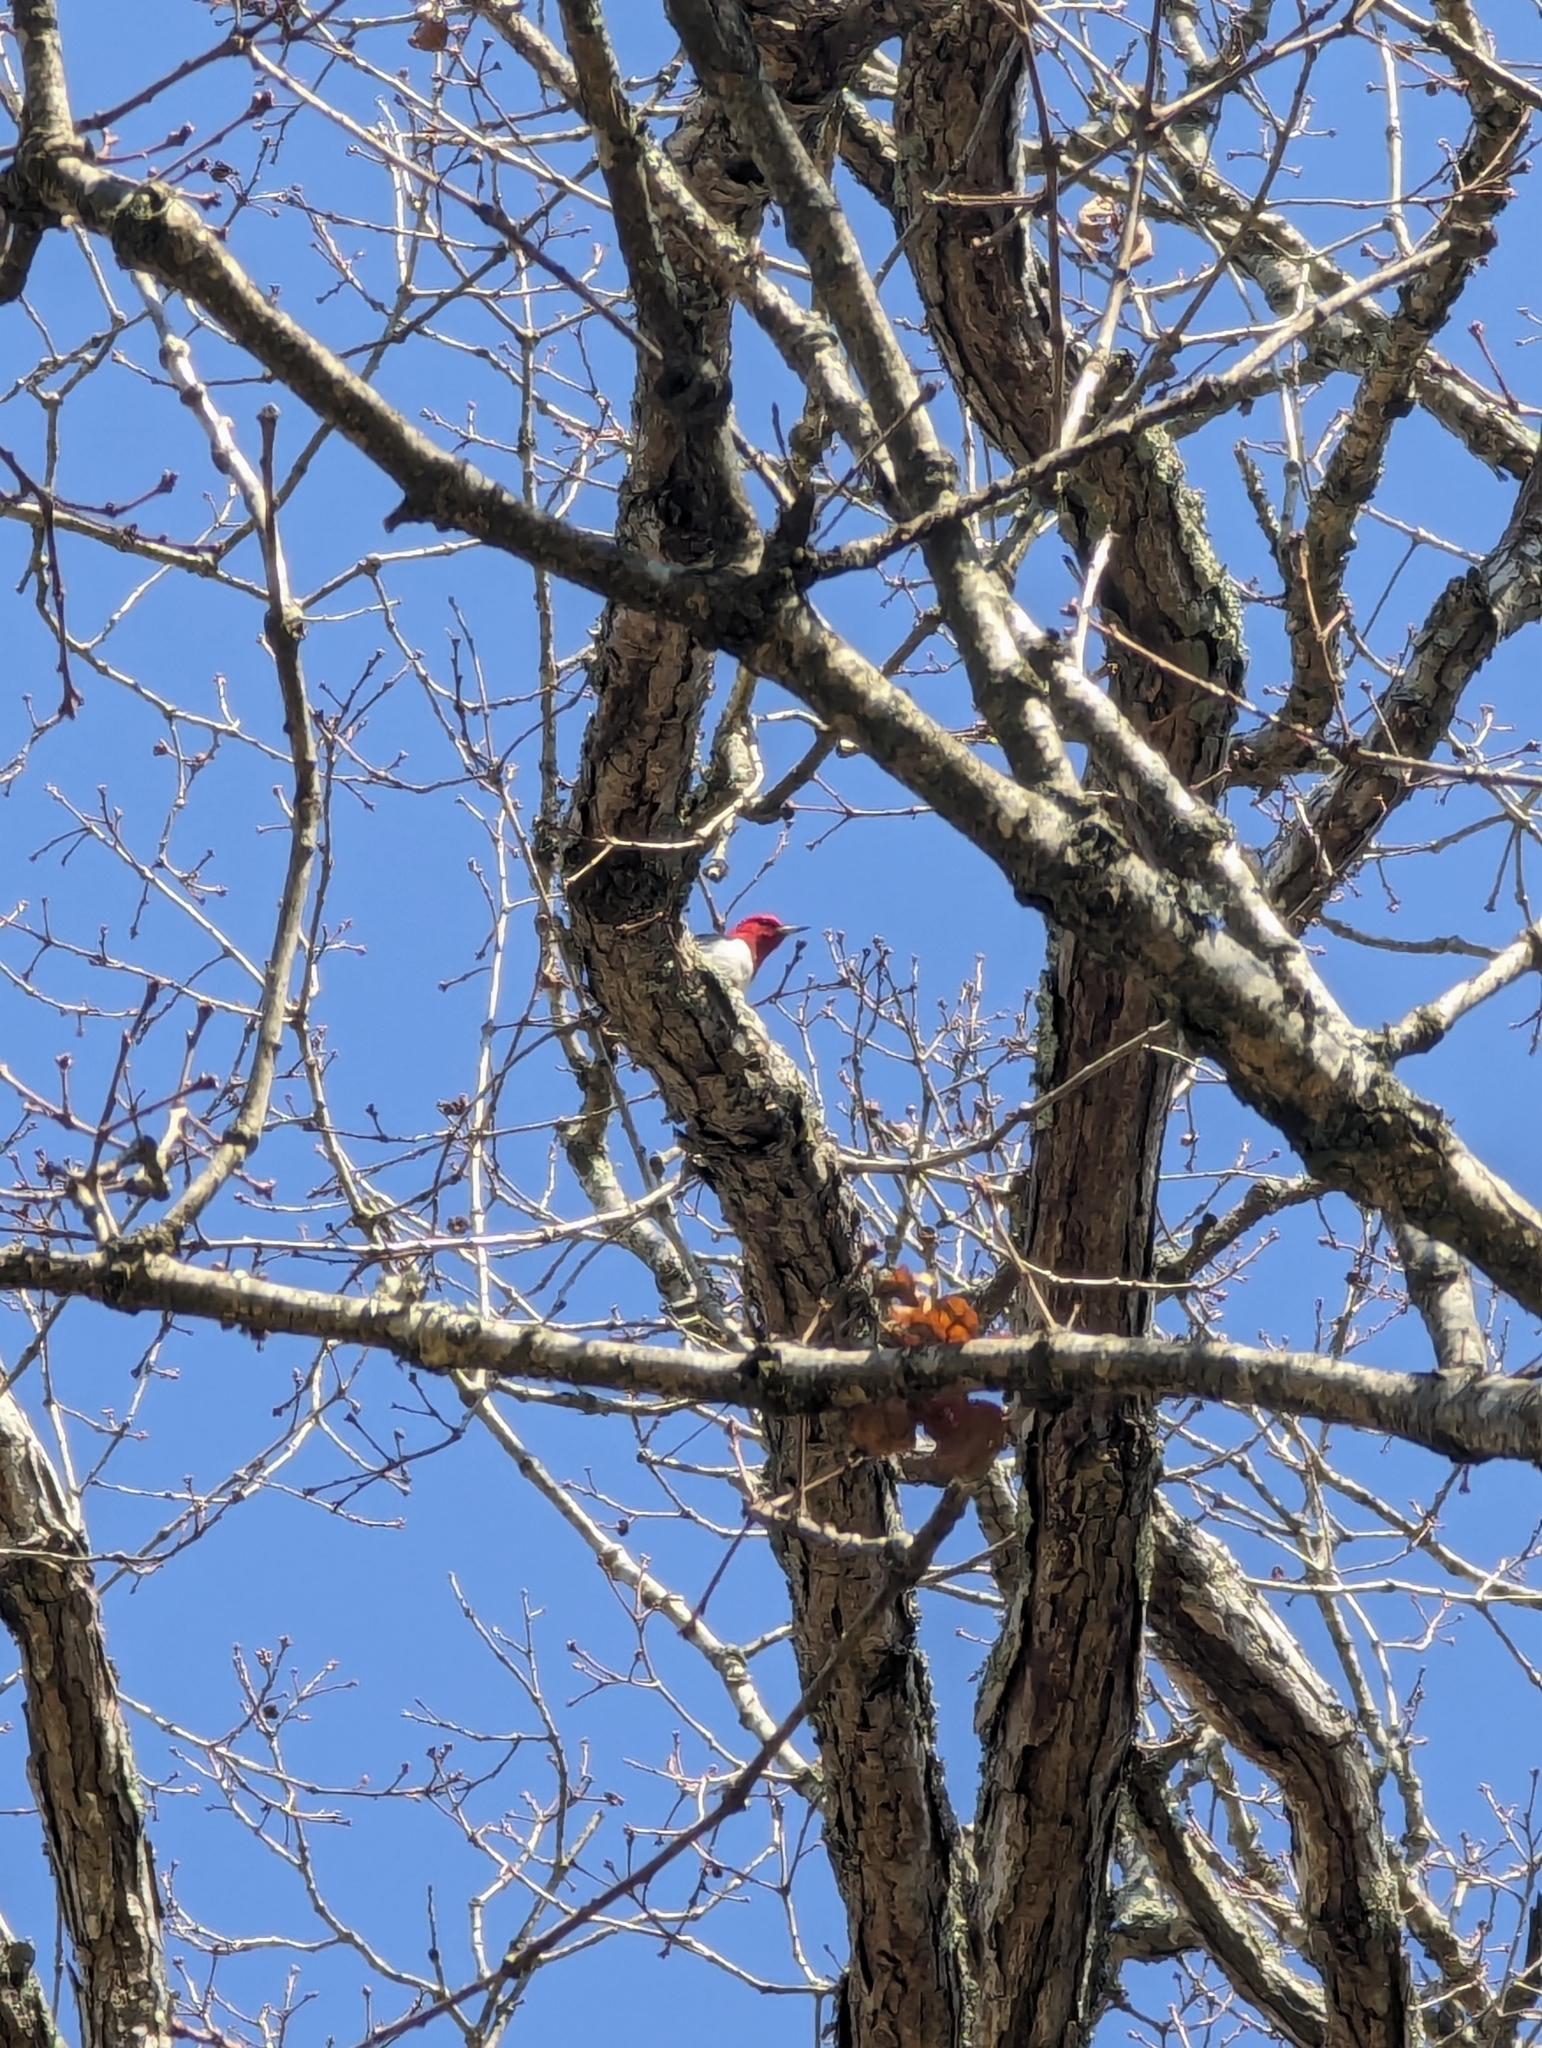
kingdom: Animalia
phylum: Chordata
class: Aves
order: Piciformes
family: Picidae
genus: Melanerpes
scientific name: Melanerpes erythrocephalus
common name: Red-headed woodpecker
